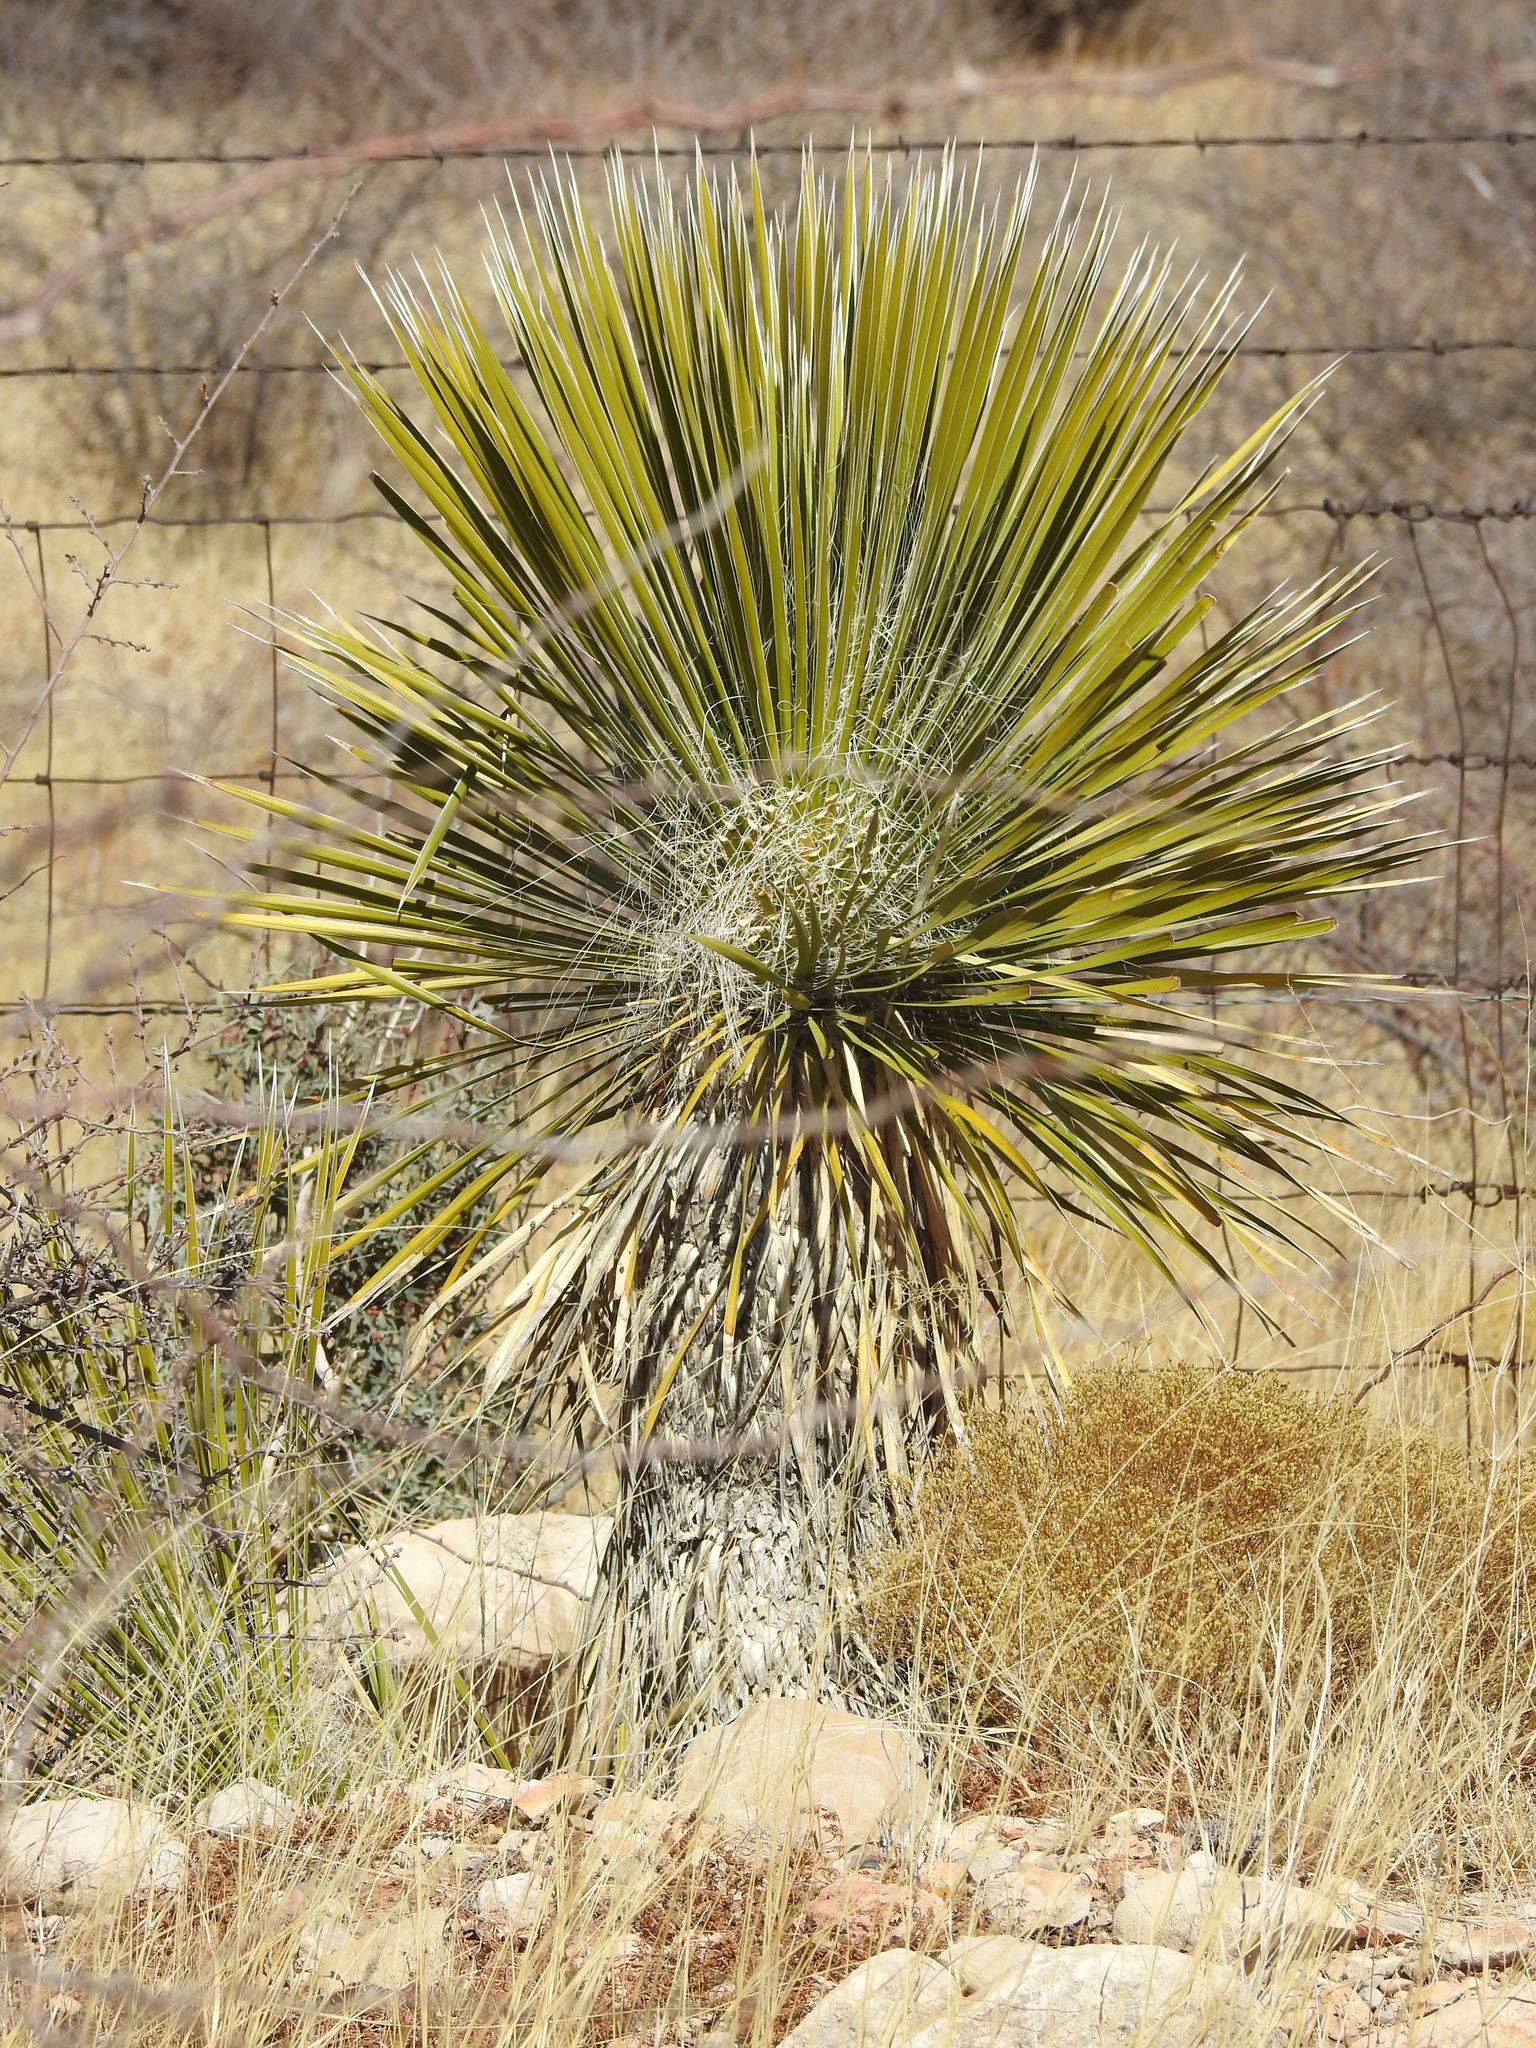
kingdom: Plantae
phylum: Tracheophyta
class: Liliopsida
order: Asparagales
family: Asparagaceae
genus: Yucca
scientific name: Yucca elata
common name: Palmella
